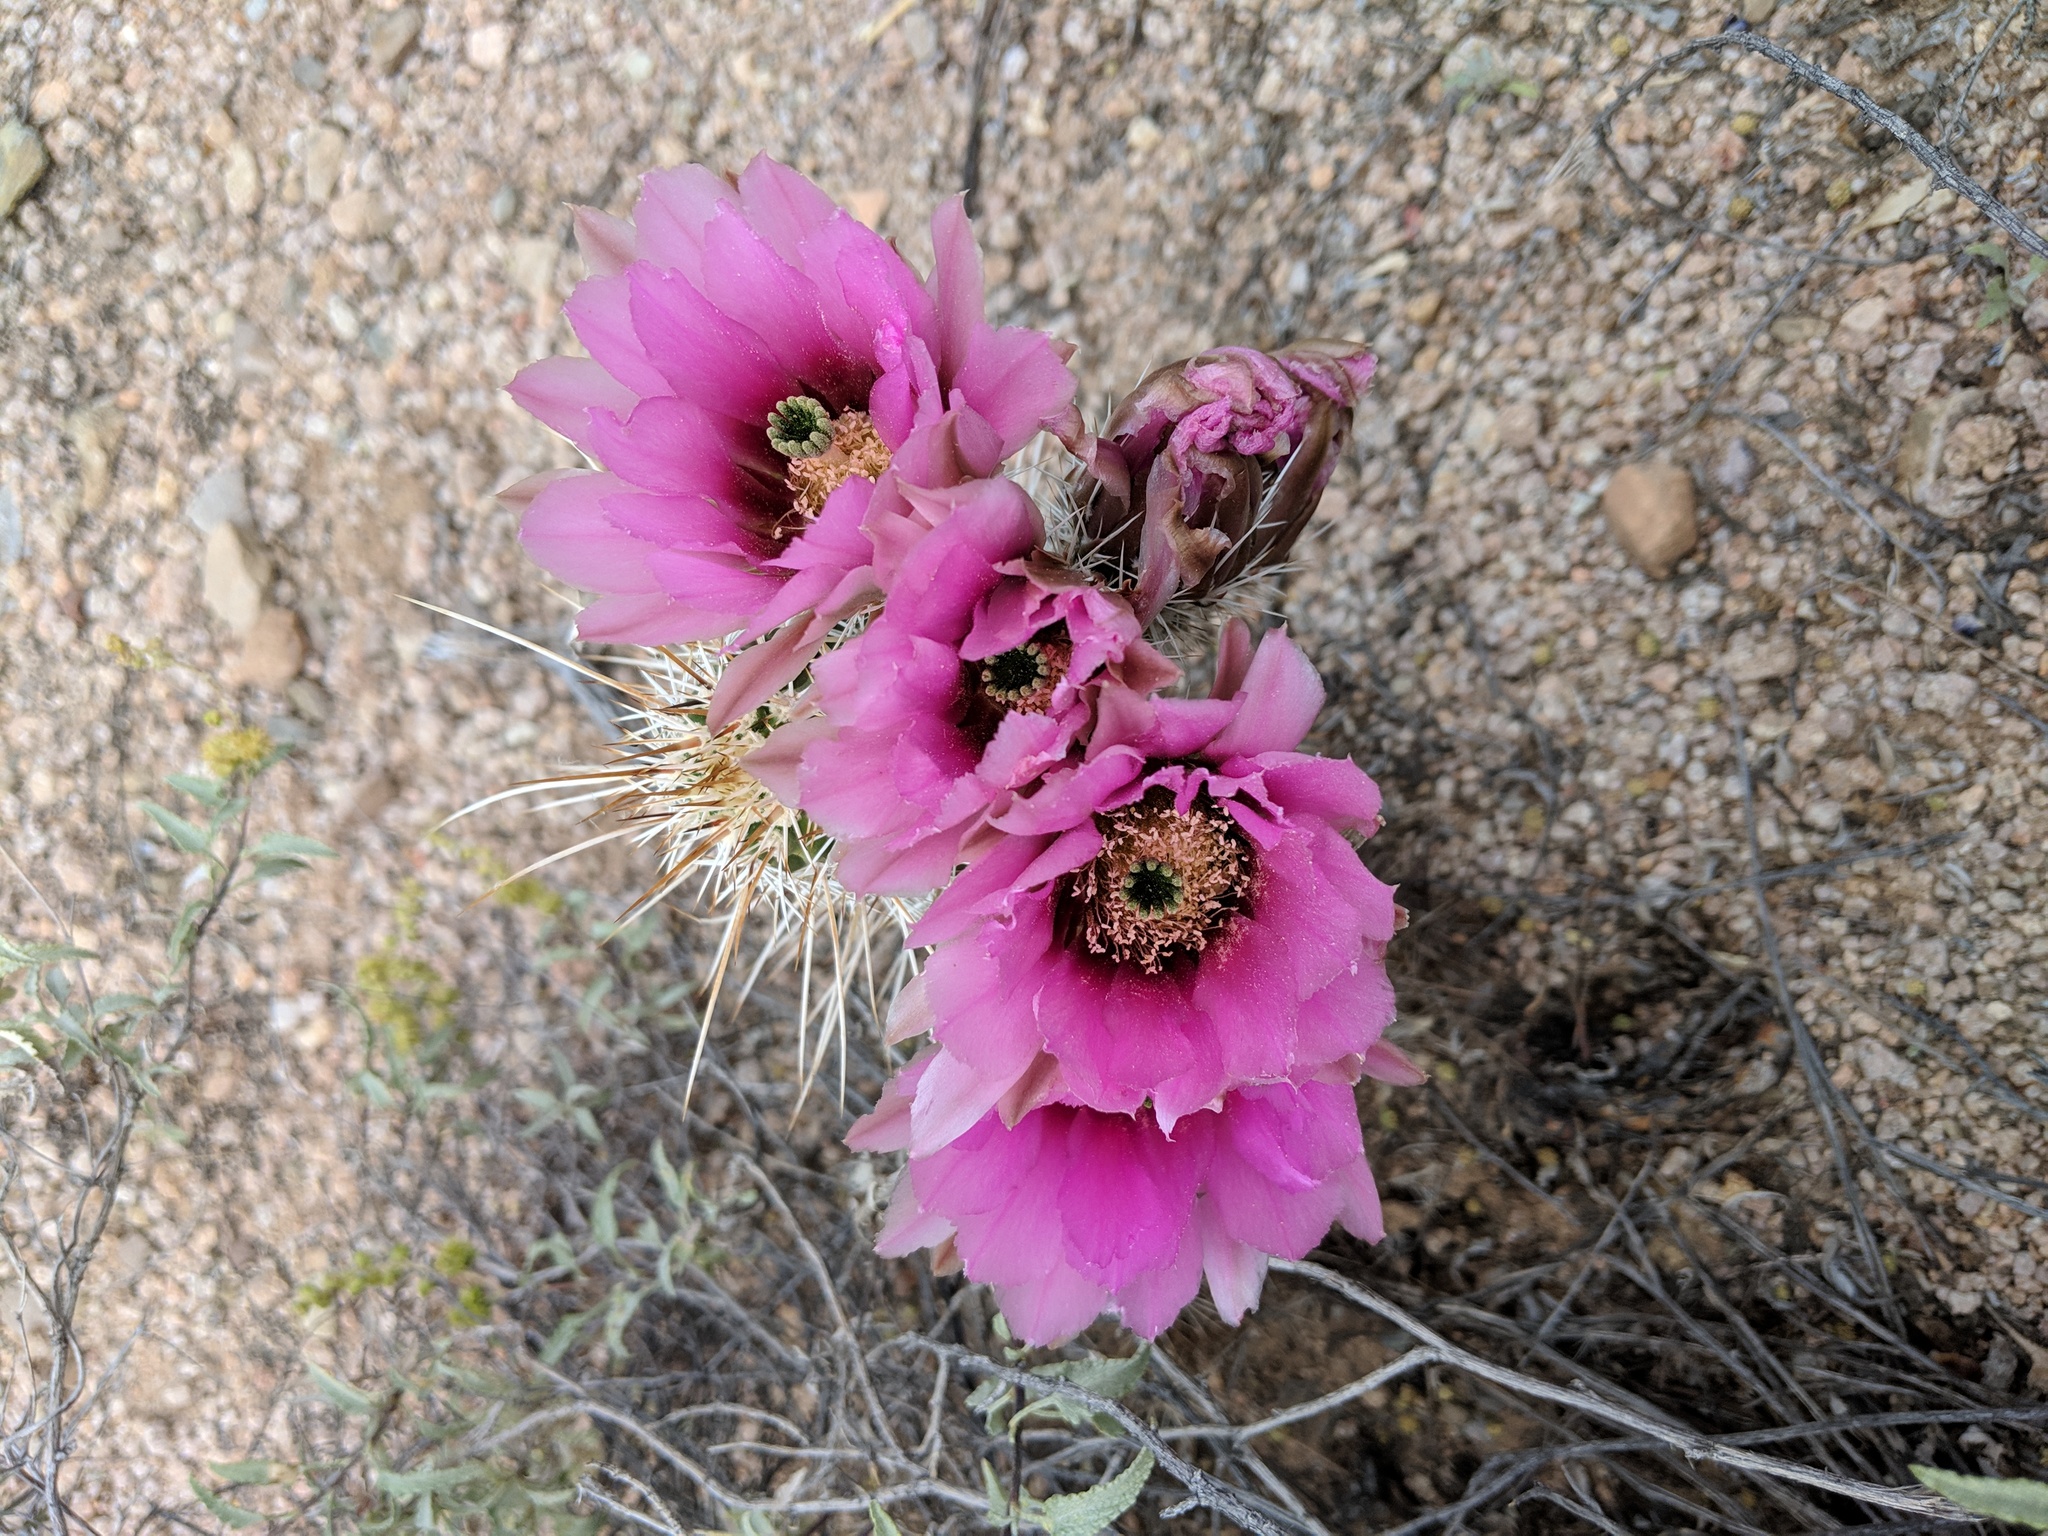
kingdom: Plantae
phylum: Tracheophyta
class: Magnoliopsida
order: Caryophyllales
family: Cactaceae
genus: Echinocereus
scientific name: Echinocereus fasciculatus
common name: Bundle hedgehog
